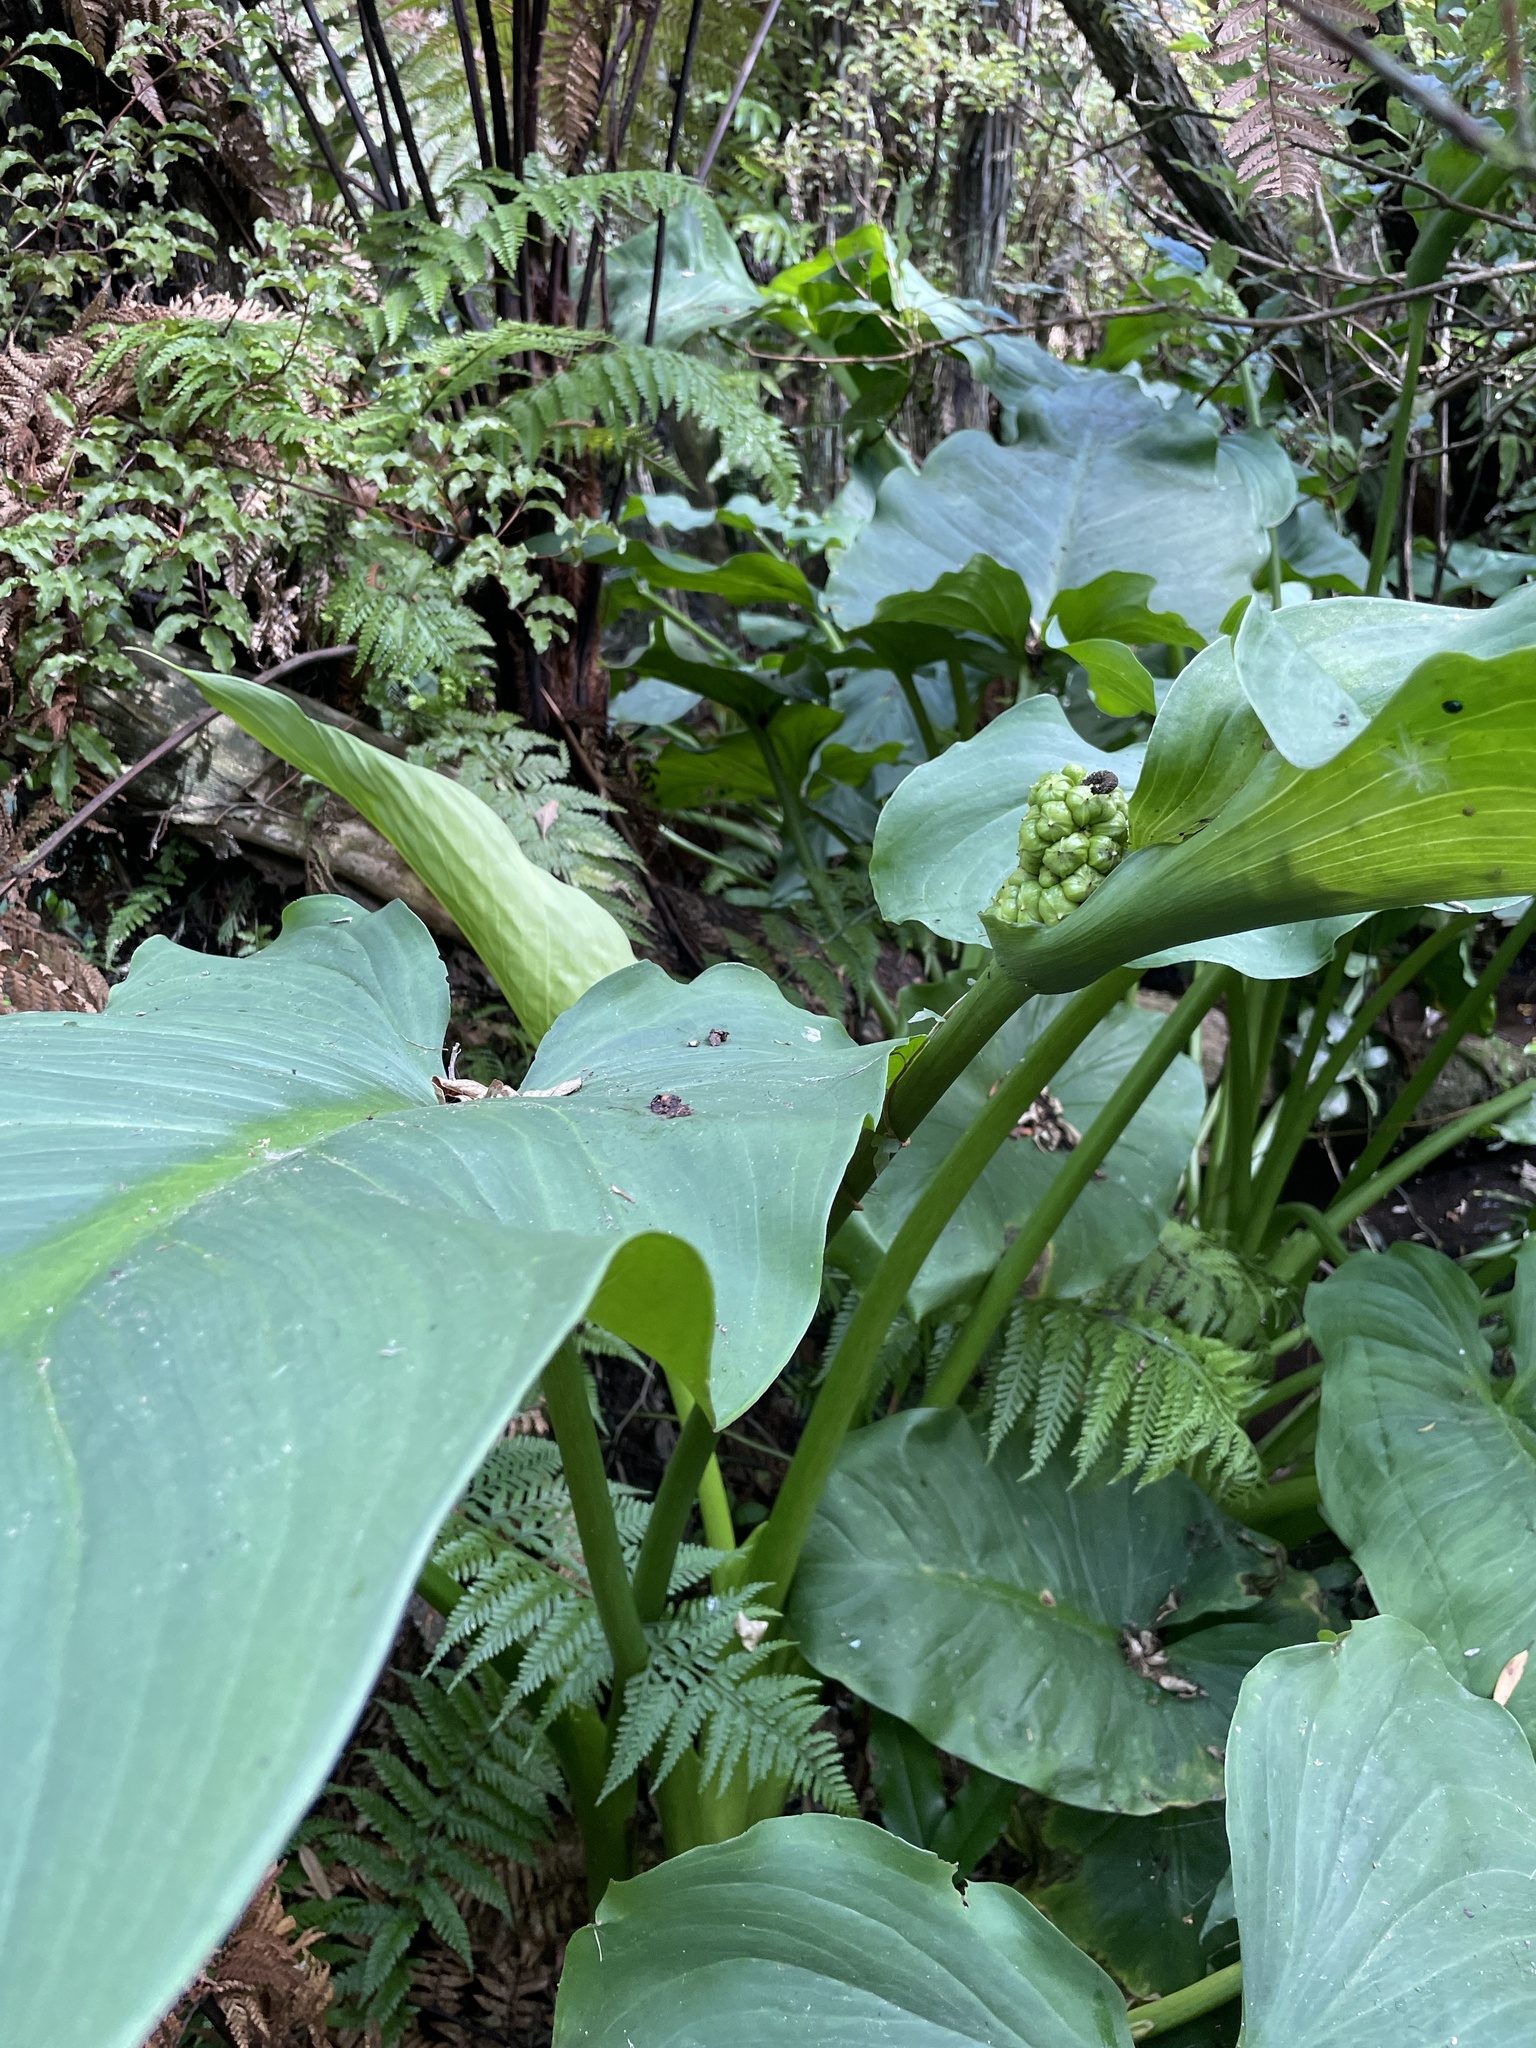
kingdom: Plantae
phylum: Tracheophyta
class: Liliopsida
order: Alismatales
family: Araceae
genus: Zantedeschia
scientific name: Zantedeschia aethiopica
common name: Altar-lily
